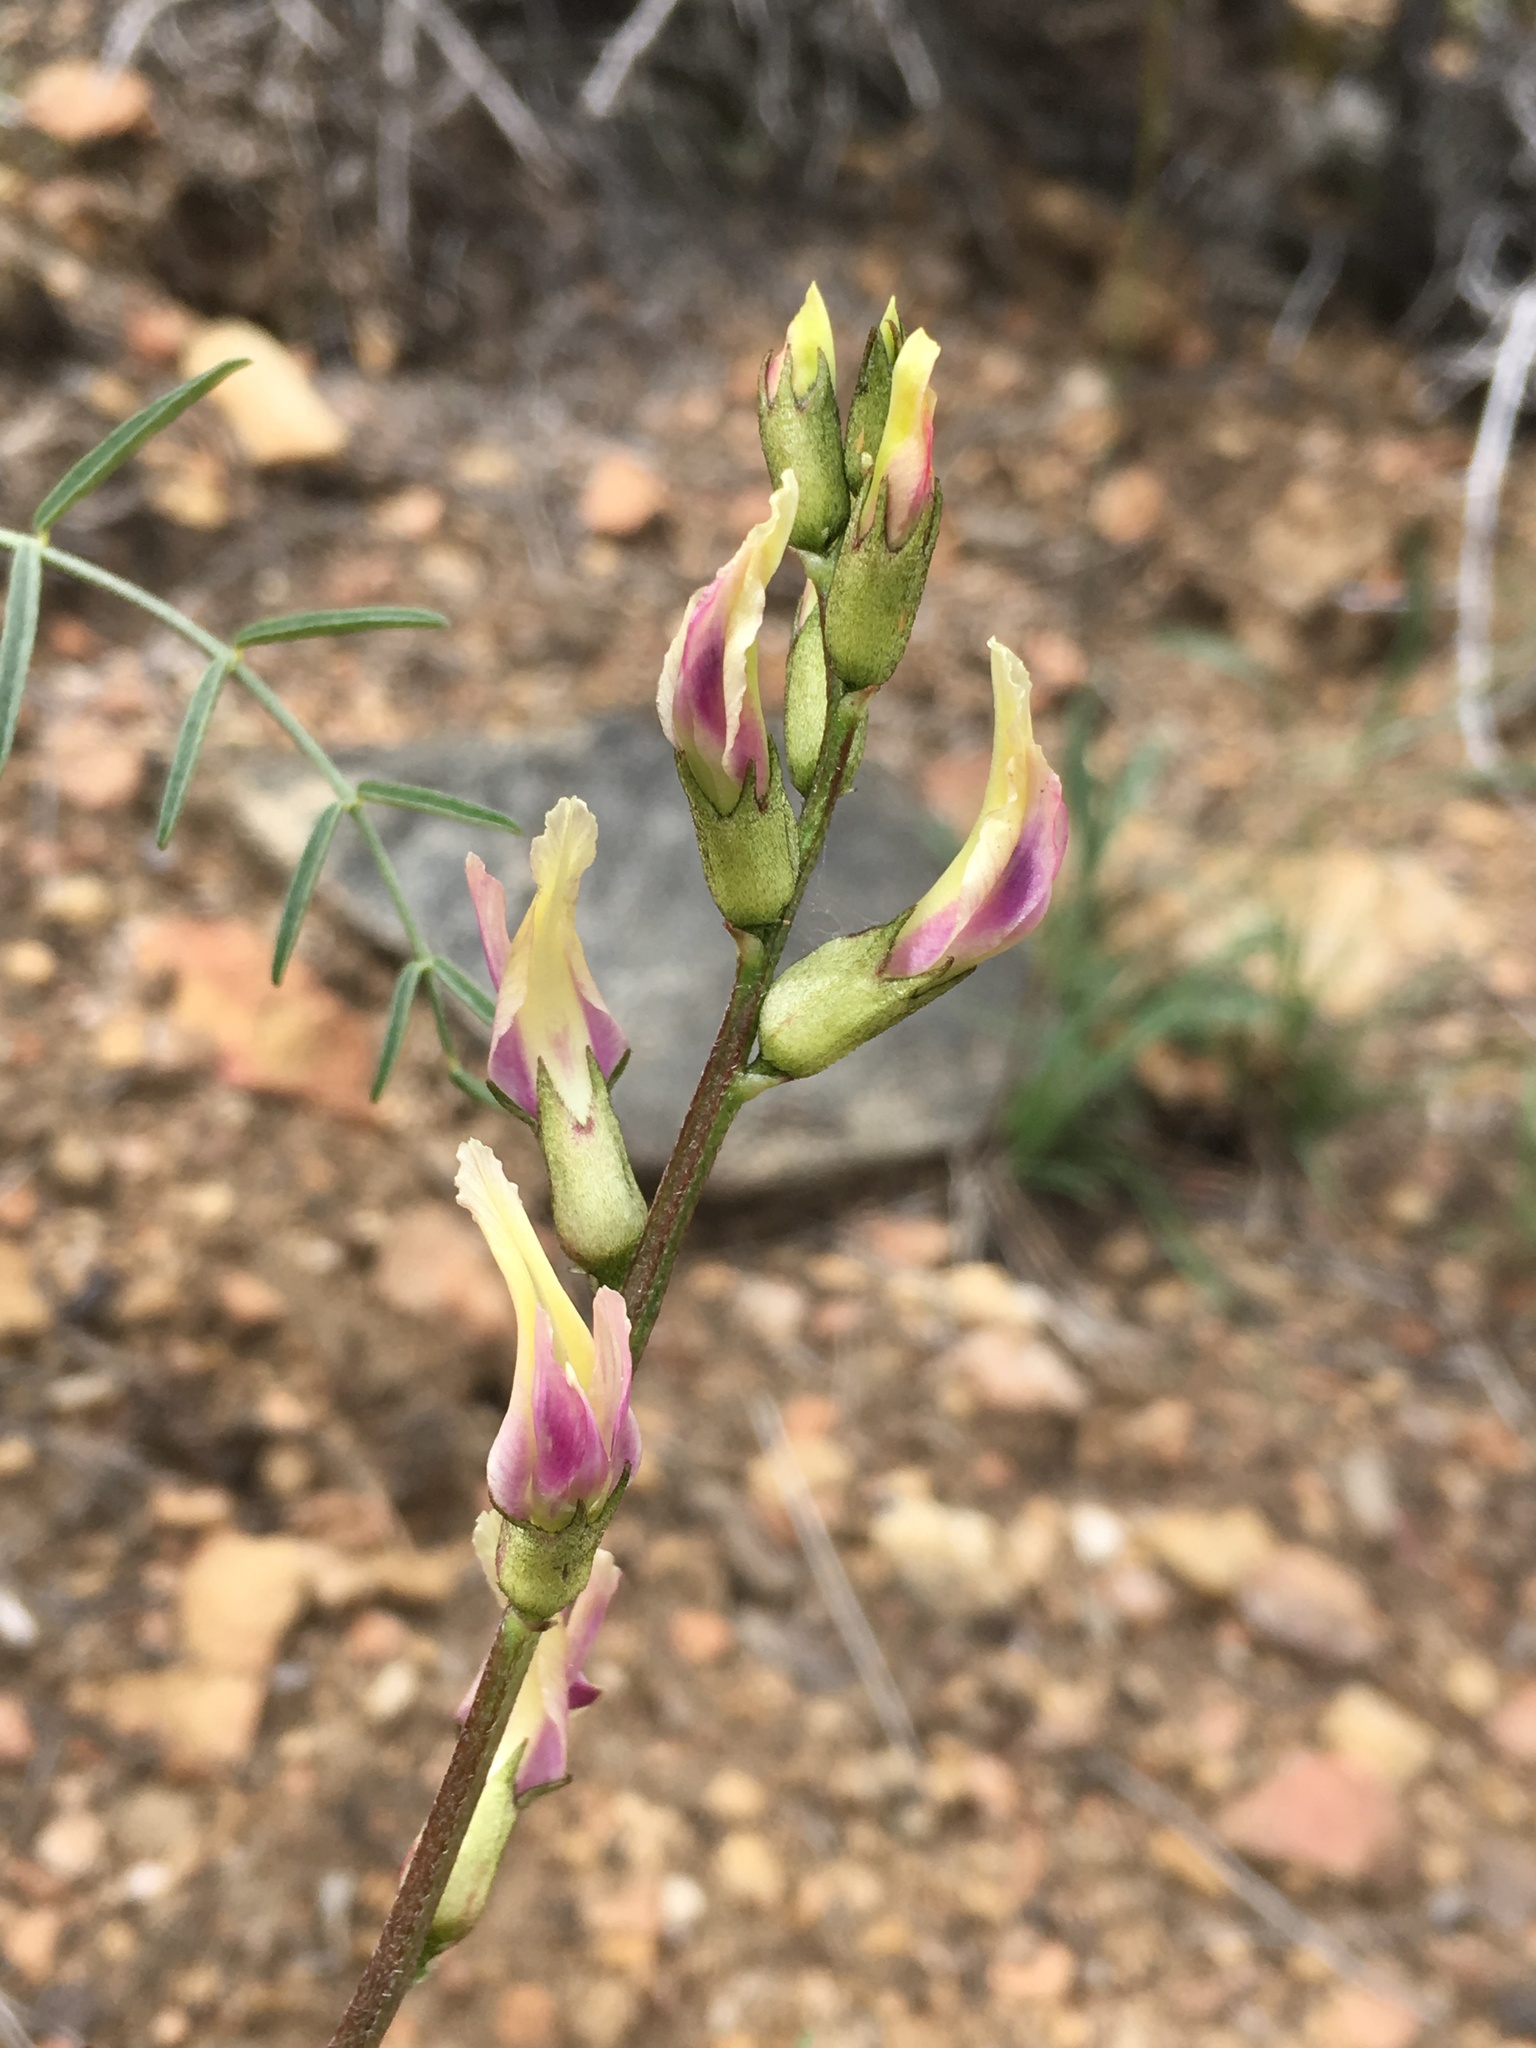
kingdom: Plantae
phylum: Tracheophyta
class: Magnoliopsida
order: Fabales
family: Fabaceae
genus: Astragalus
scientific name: Astragalus bicristatus
